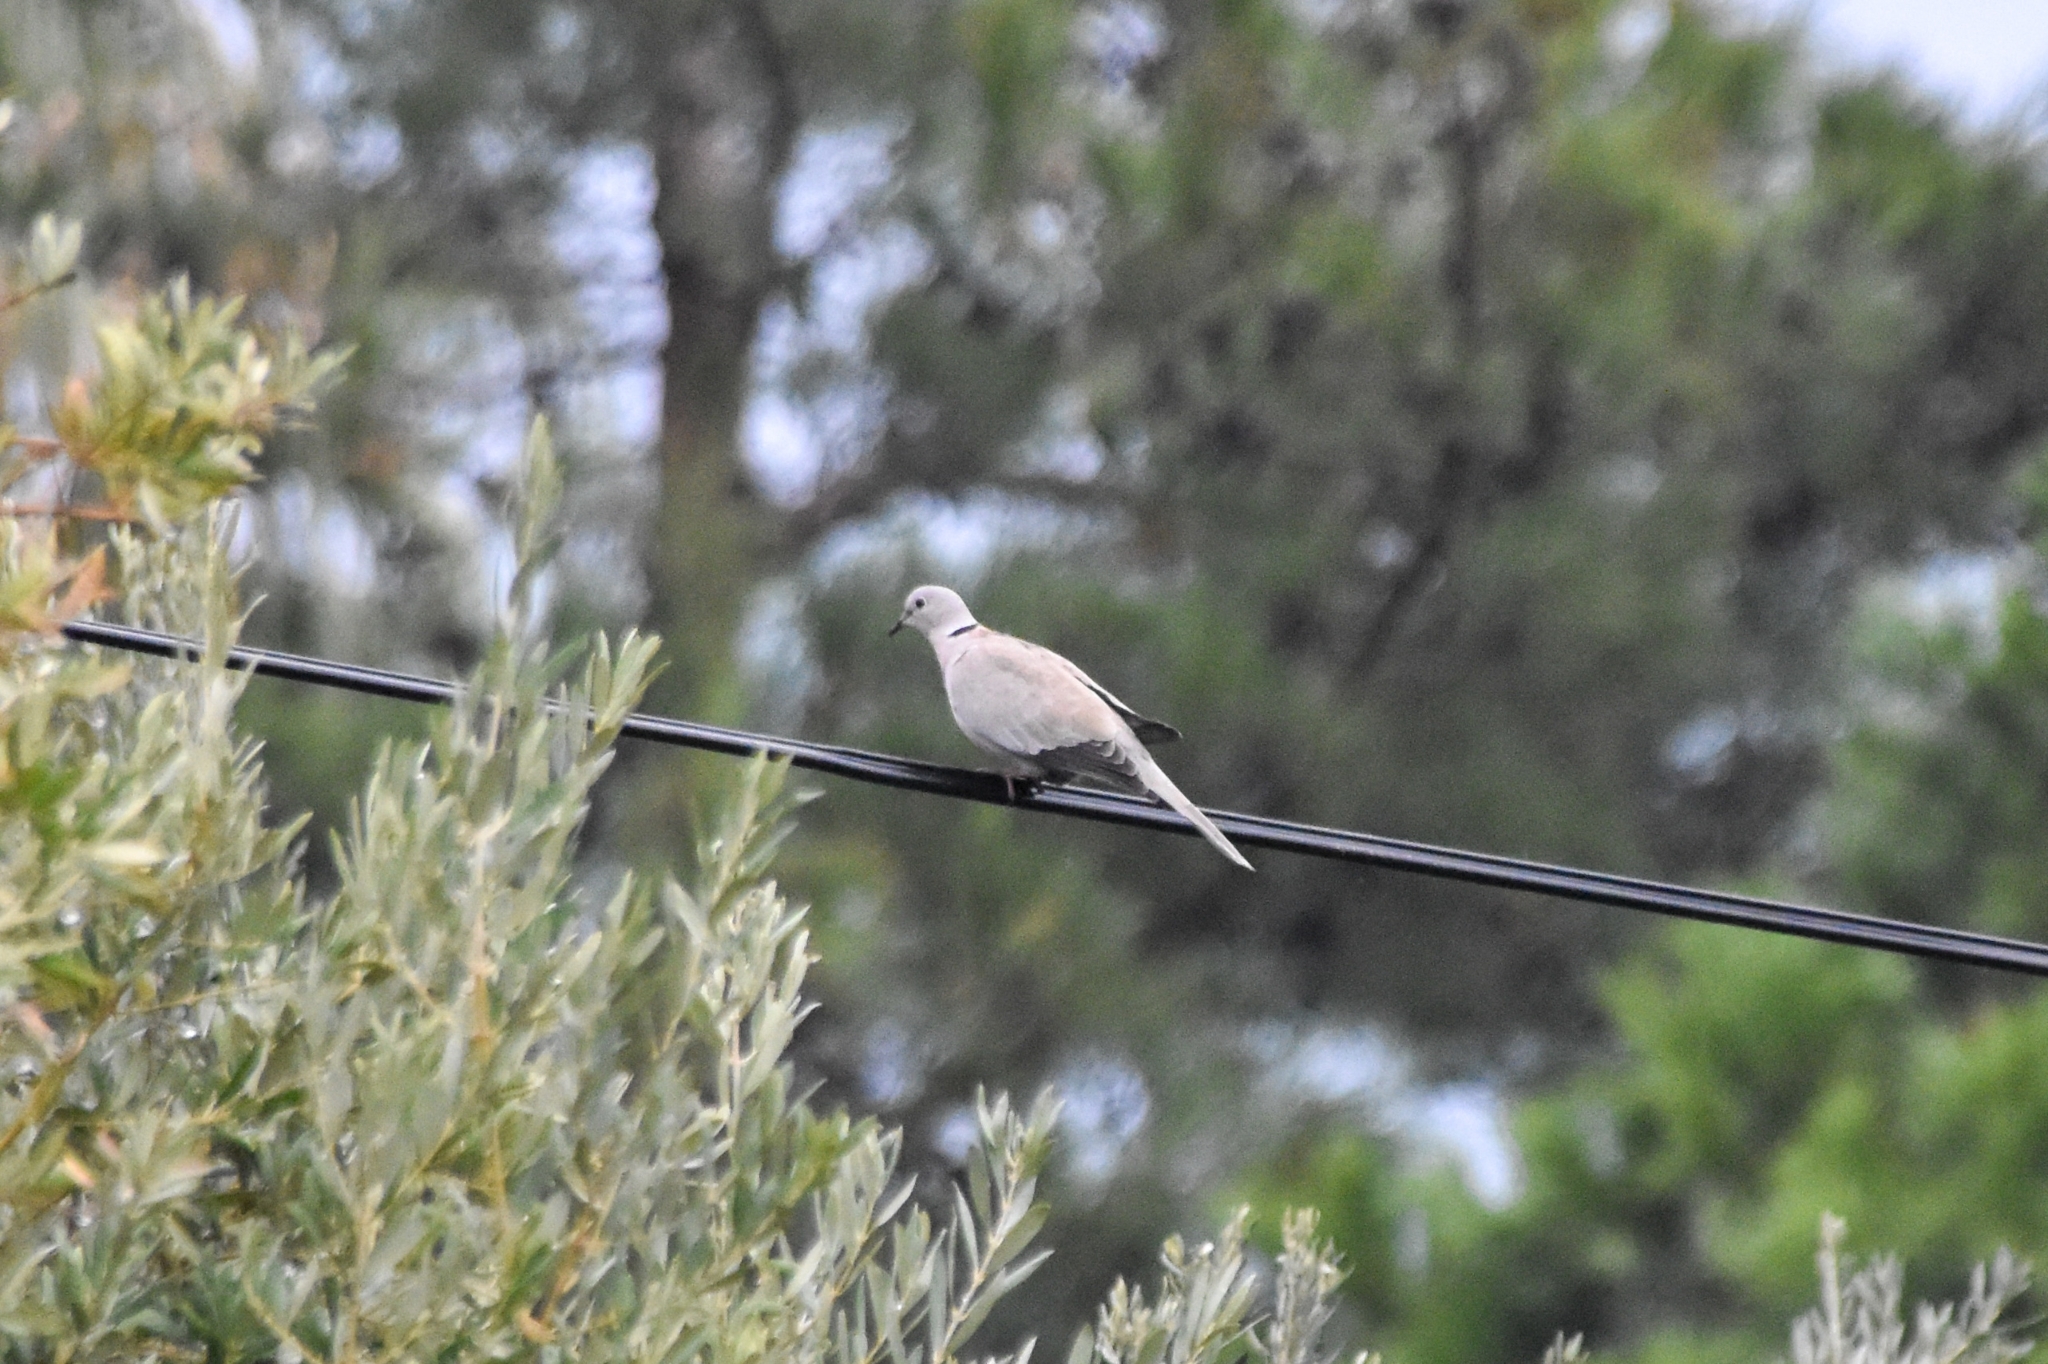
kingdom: Animalia
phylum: Chordata
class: Aves
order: Columbiformes
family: Columbidae
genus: Streptopelia
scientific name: Streptopelia decaocto
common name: Eurasian collared dove
